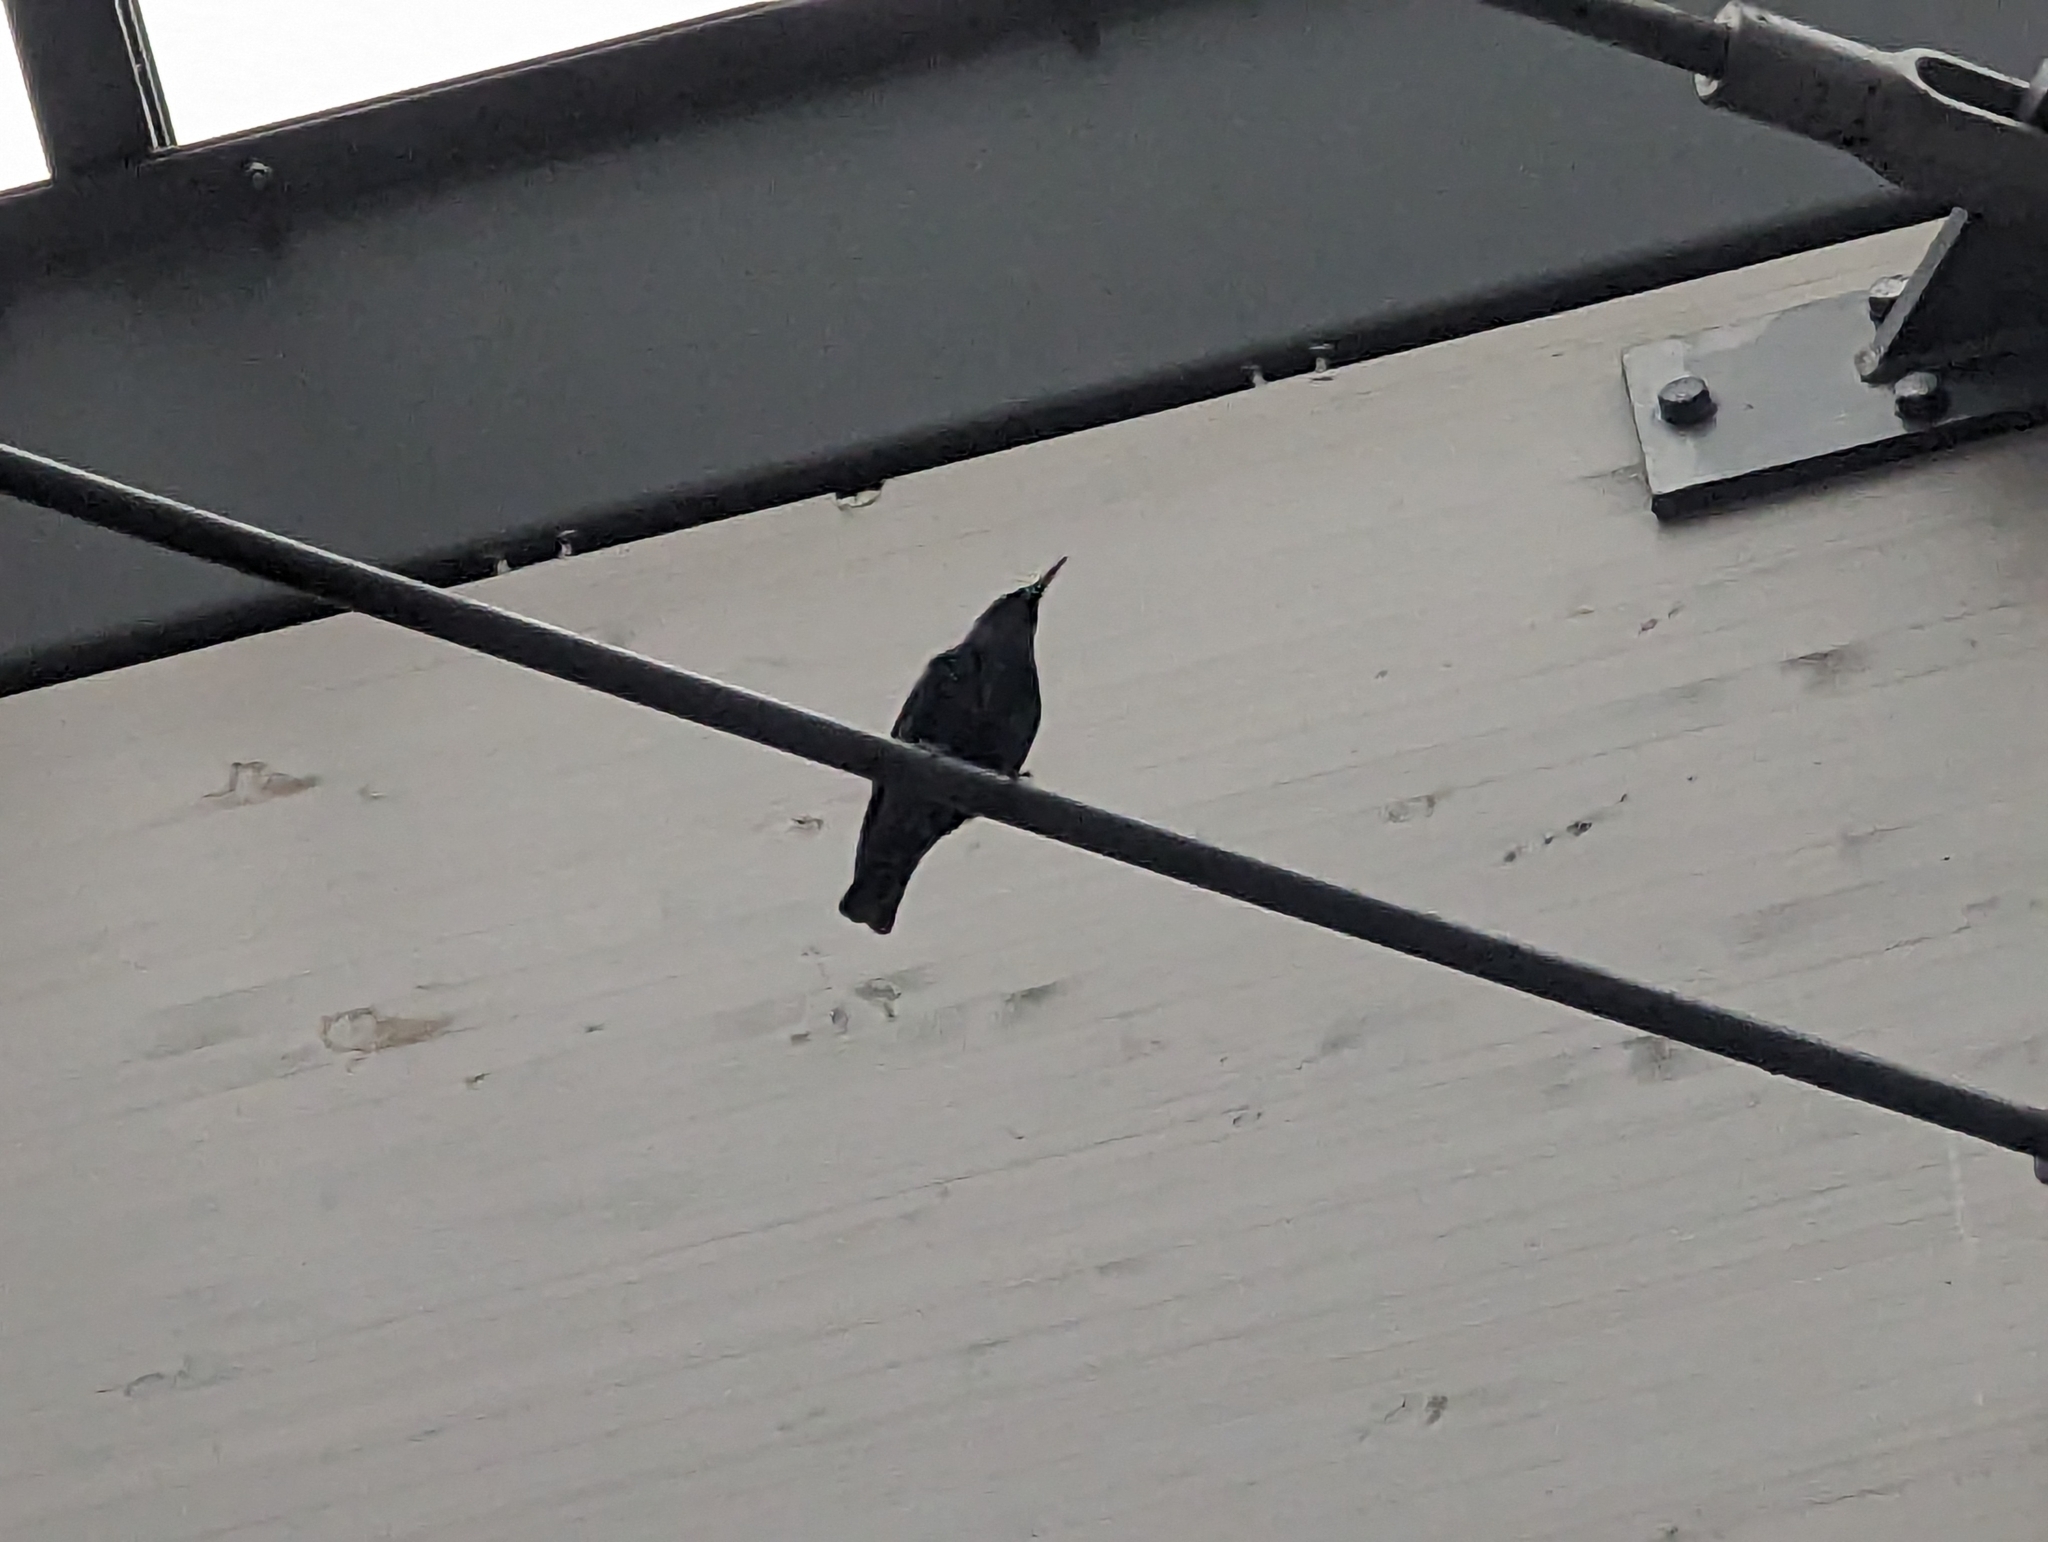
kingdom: Animalia
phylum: Chordata
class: Aves
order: Passeriformes
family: Sturnidae
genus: Sturnus
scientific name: Sturnus vulgaris
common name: Common starling
